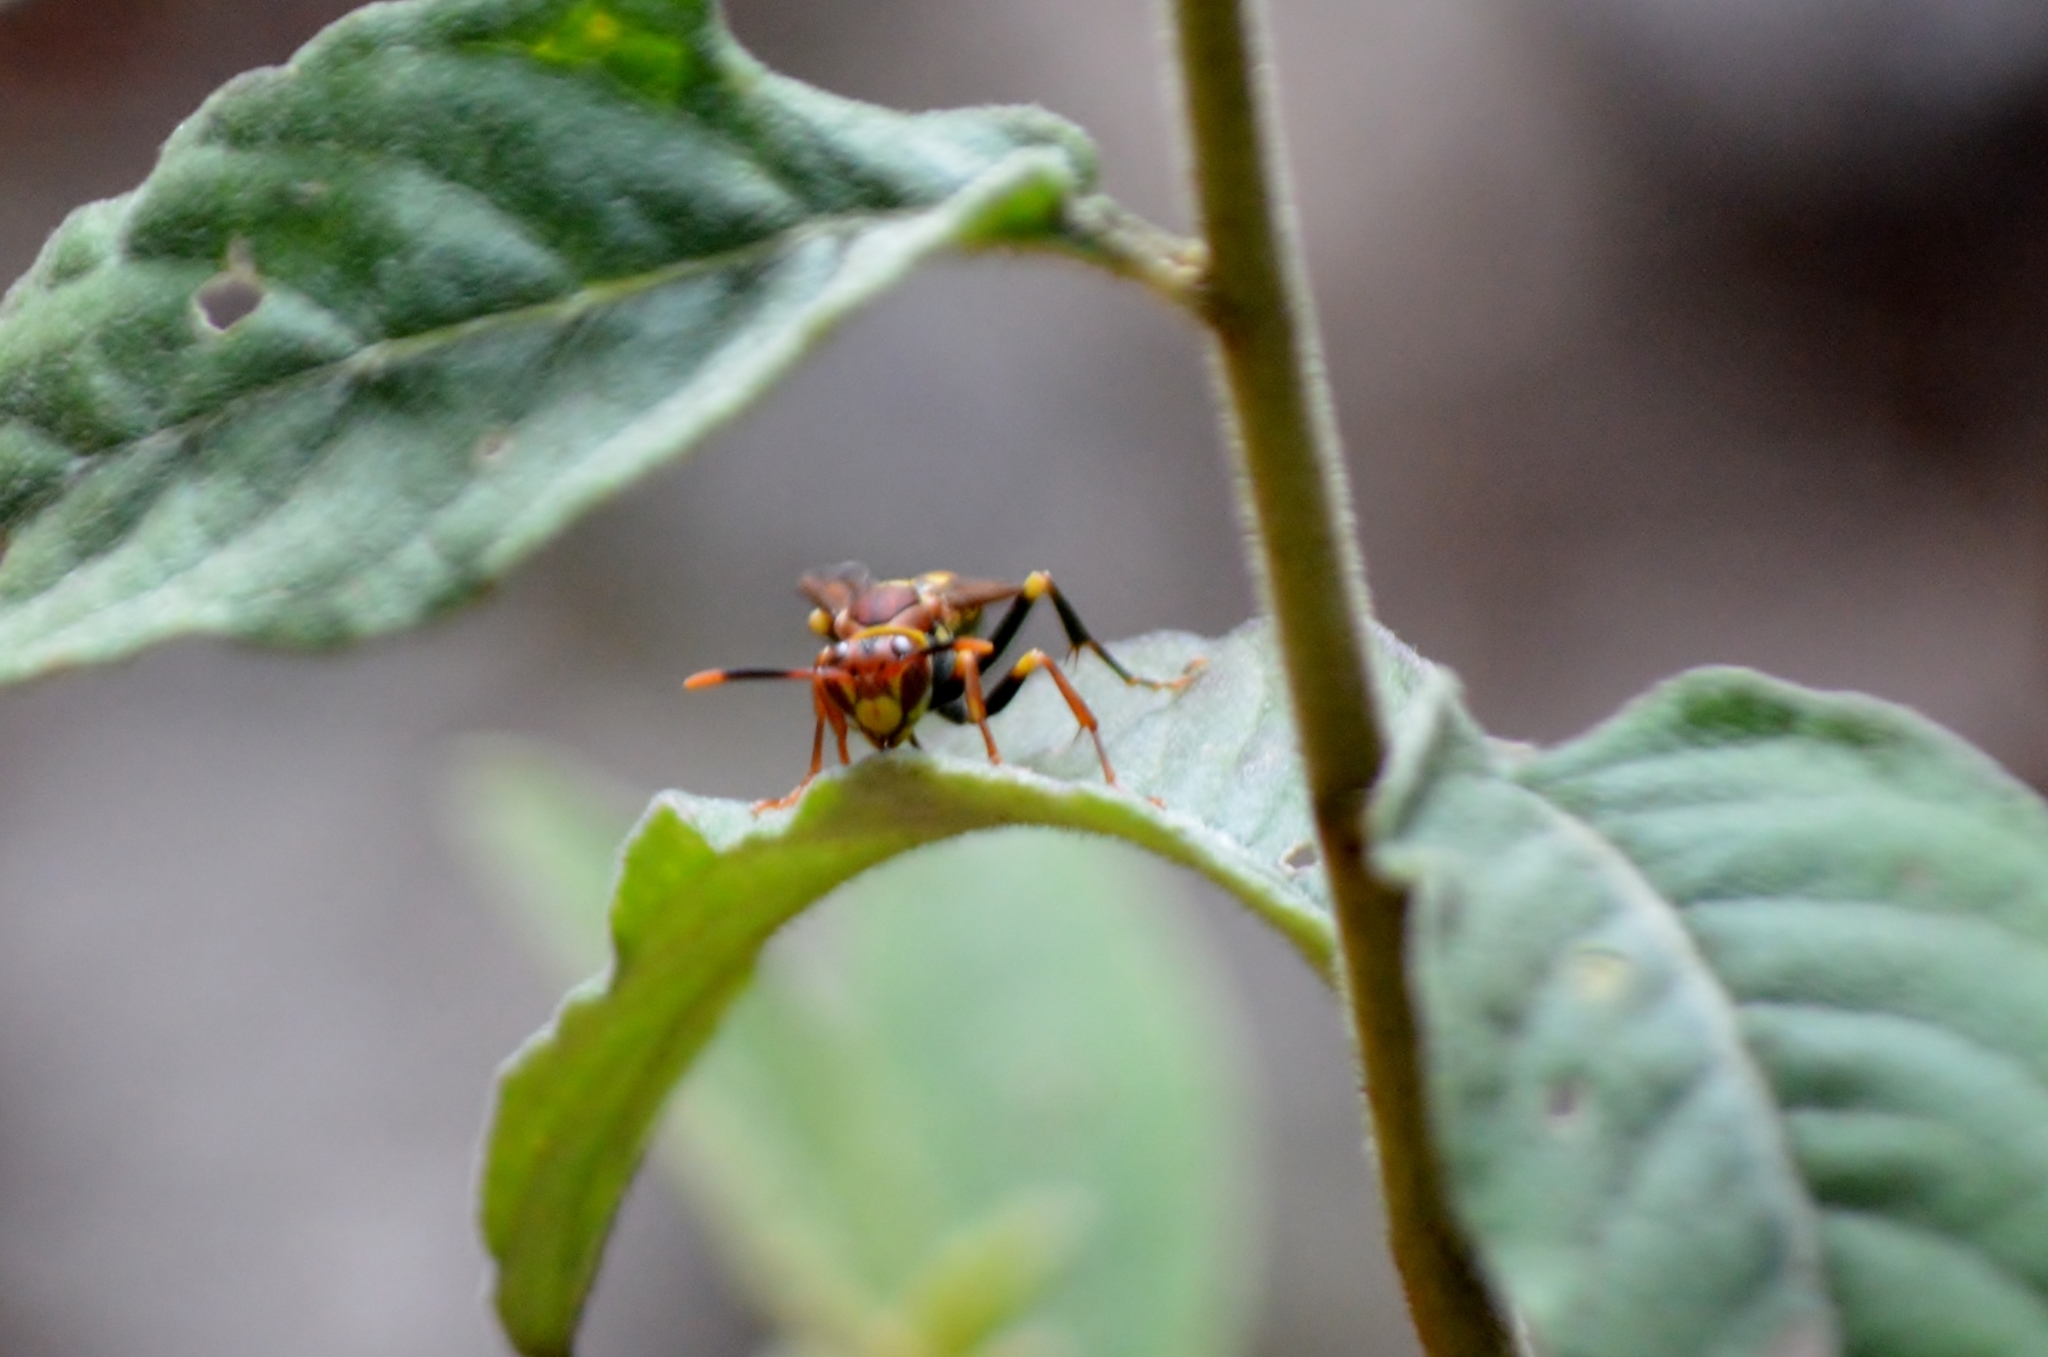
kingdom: Animalia
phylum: Arthropoda
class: Insecta
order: Hymenoptera
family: Eumenidae
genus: Polistes
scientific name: Polistes versicolor
